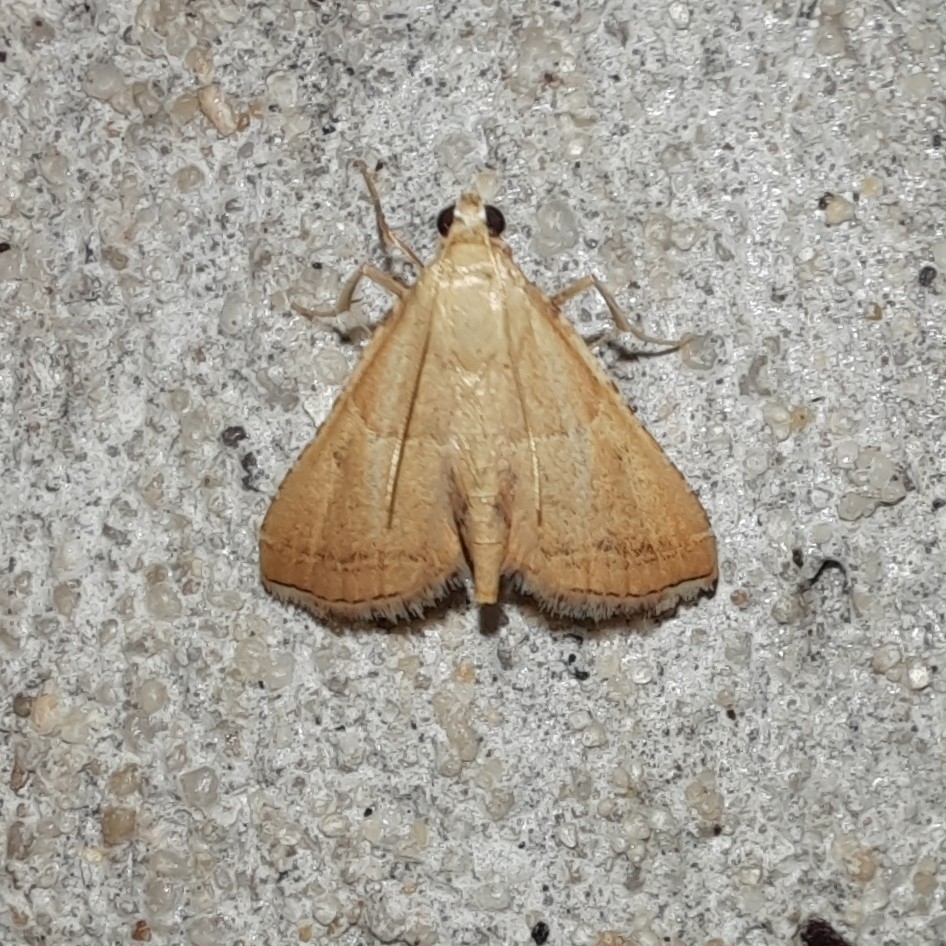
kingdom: Animalia
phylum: Arthropoda
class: Insecta
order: Lepidoptera
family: Pyralidae
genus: Endotricha
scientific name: Endotricha flammealis
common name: Rosy tabby
